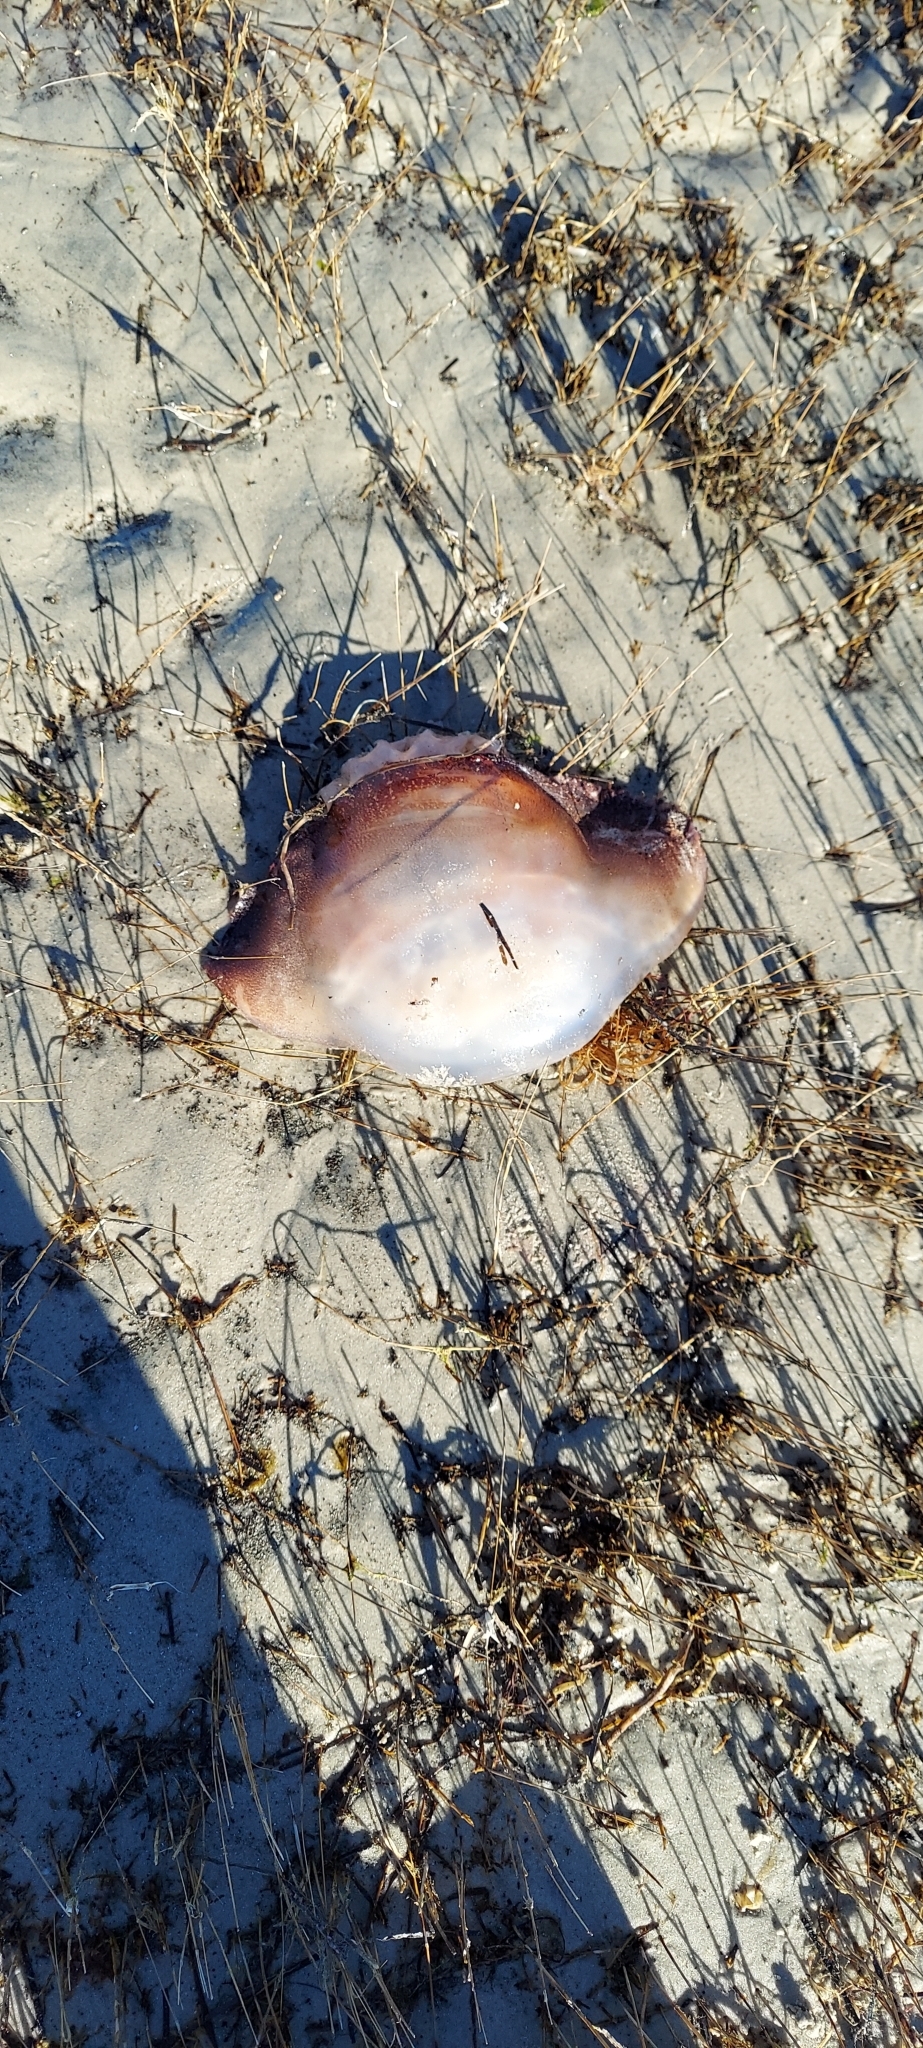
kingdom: Animalia
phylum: Cnidaria
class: Scyphozoa
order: Rhizostomeae
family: Stomolophidae
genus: Stomolophus
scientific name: Stomolophus meleagris
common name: Cabbagehead
